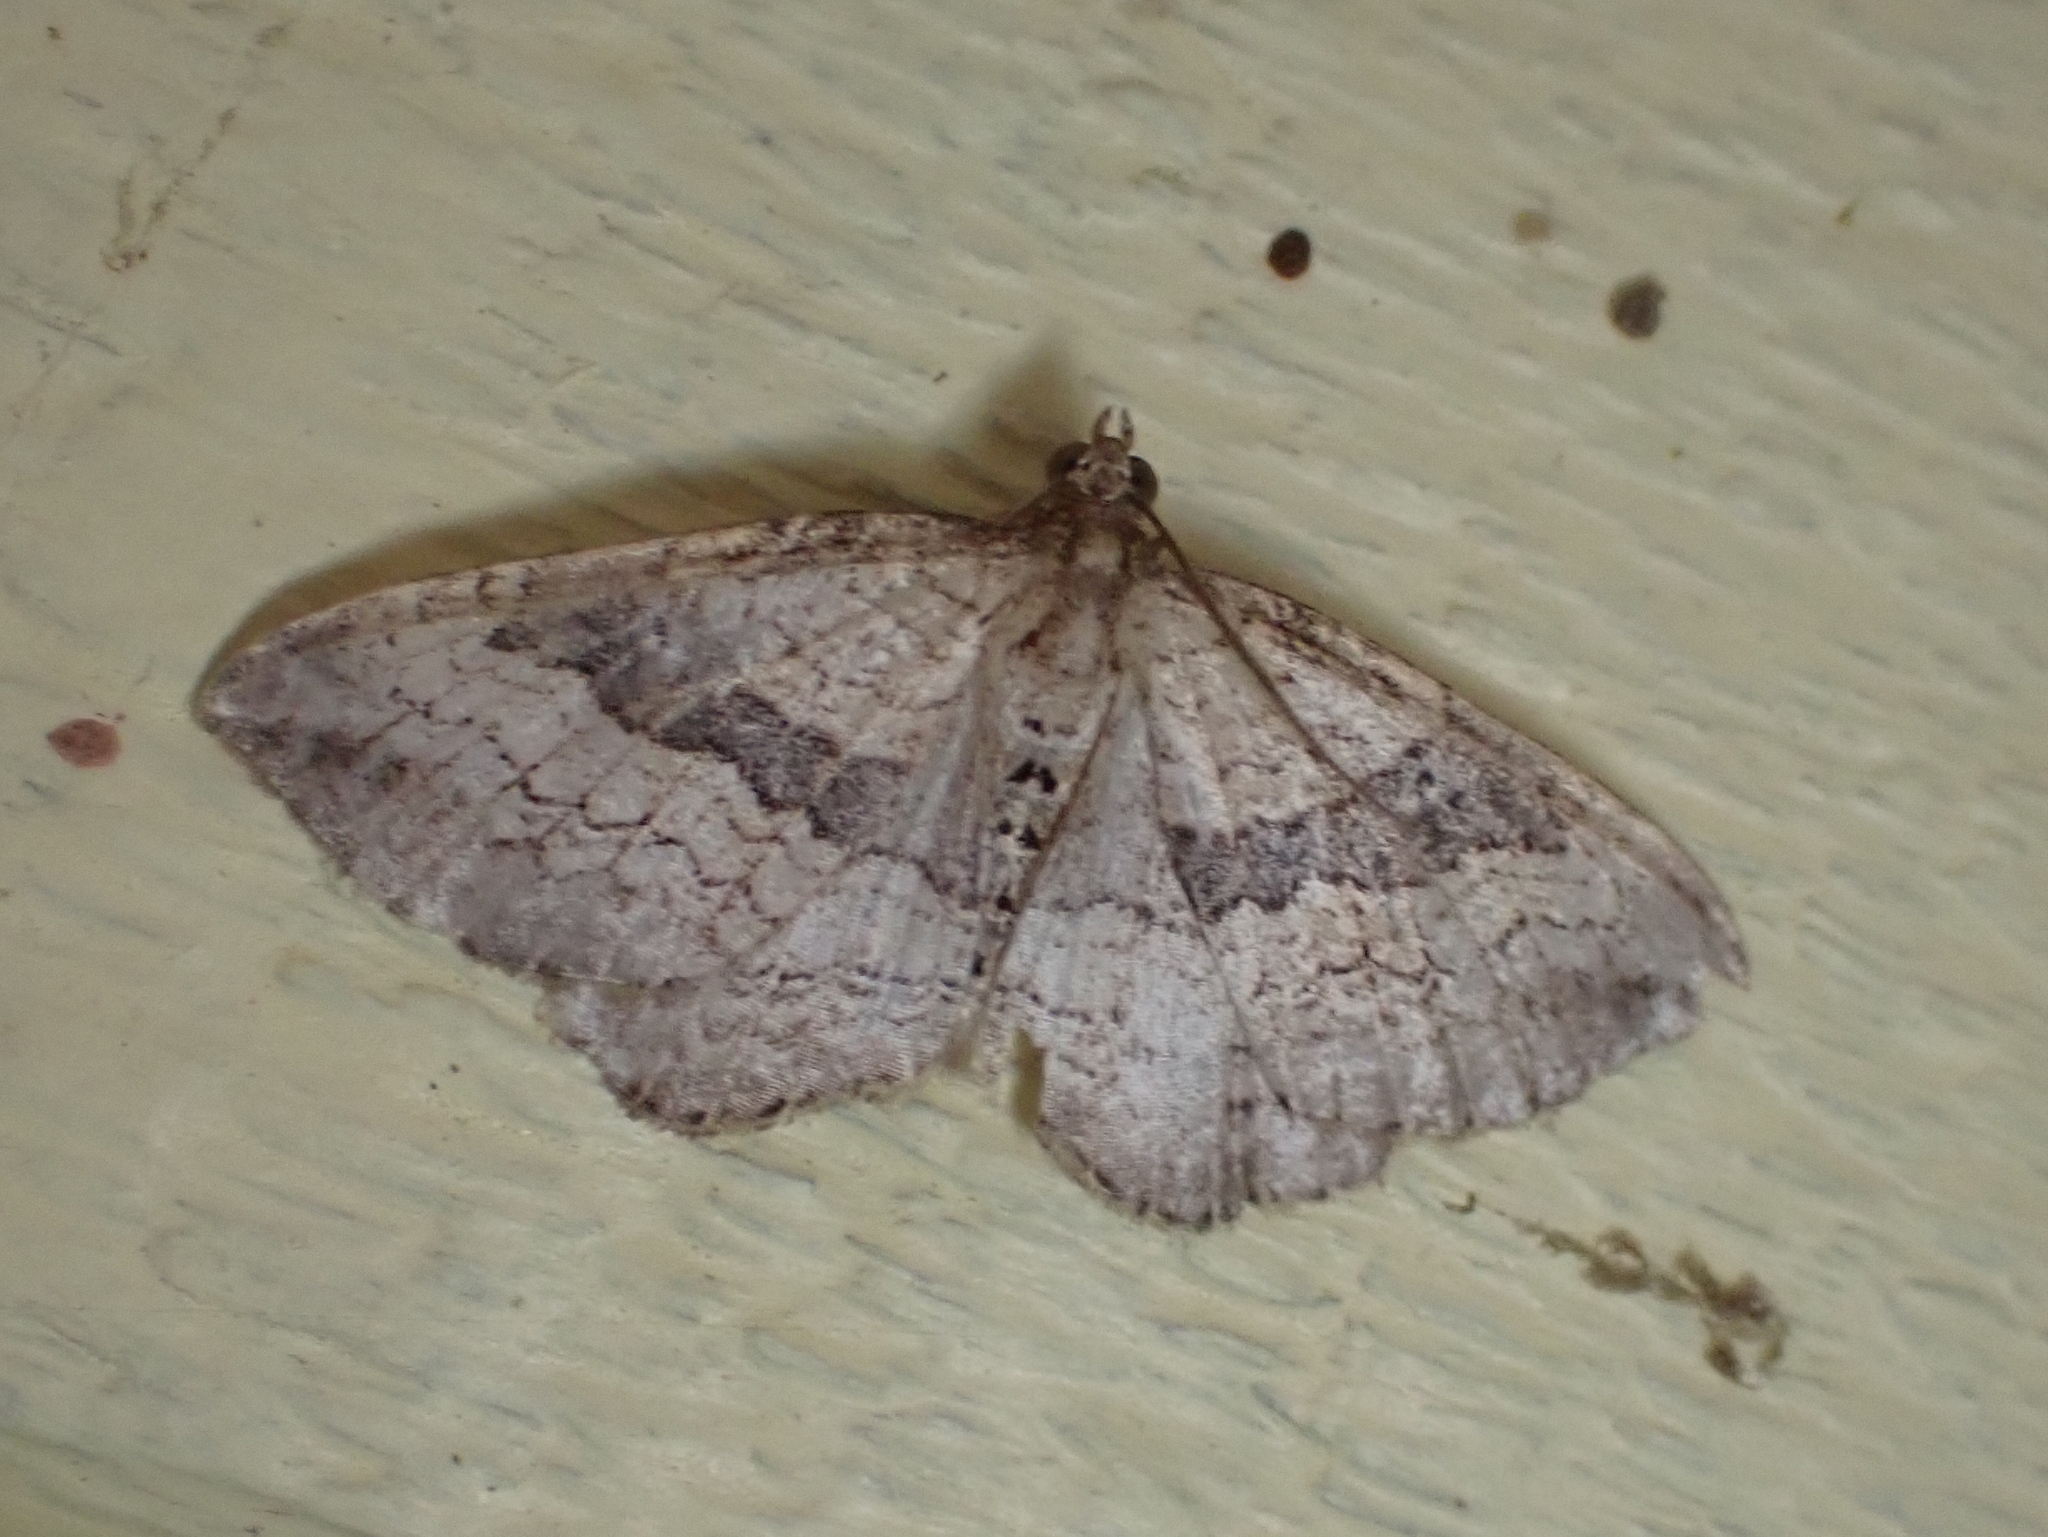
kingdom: Animalia
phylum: Arthropoda
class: Insecta
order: Lepidoptera
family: Geometridae
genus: Orthonama
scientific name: Orthonama obstipata
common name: The gem
